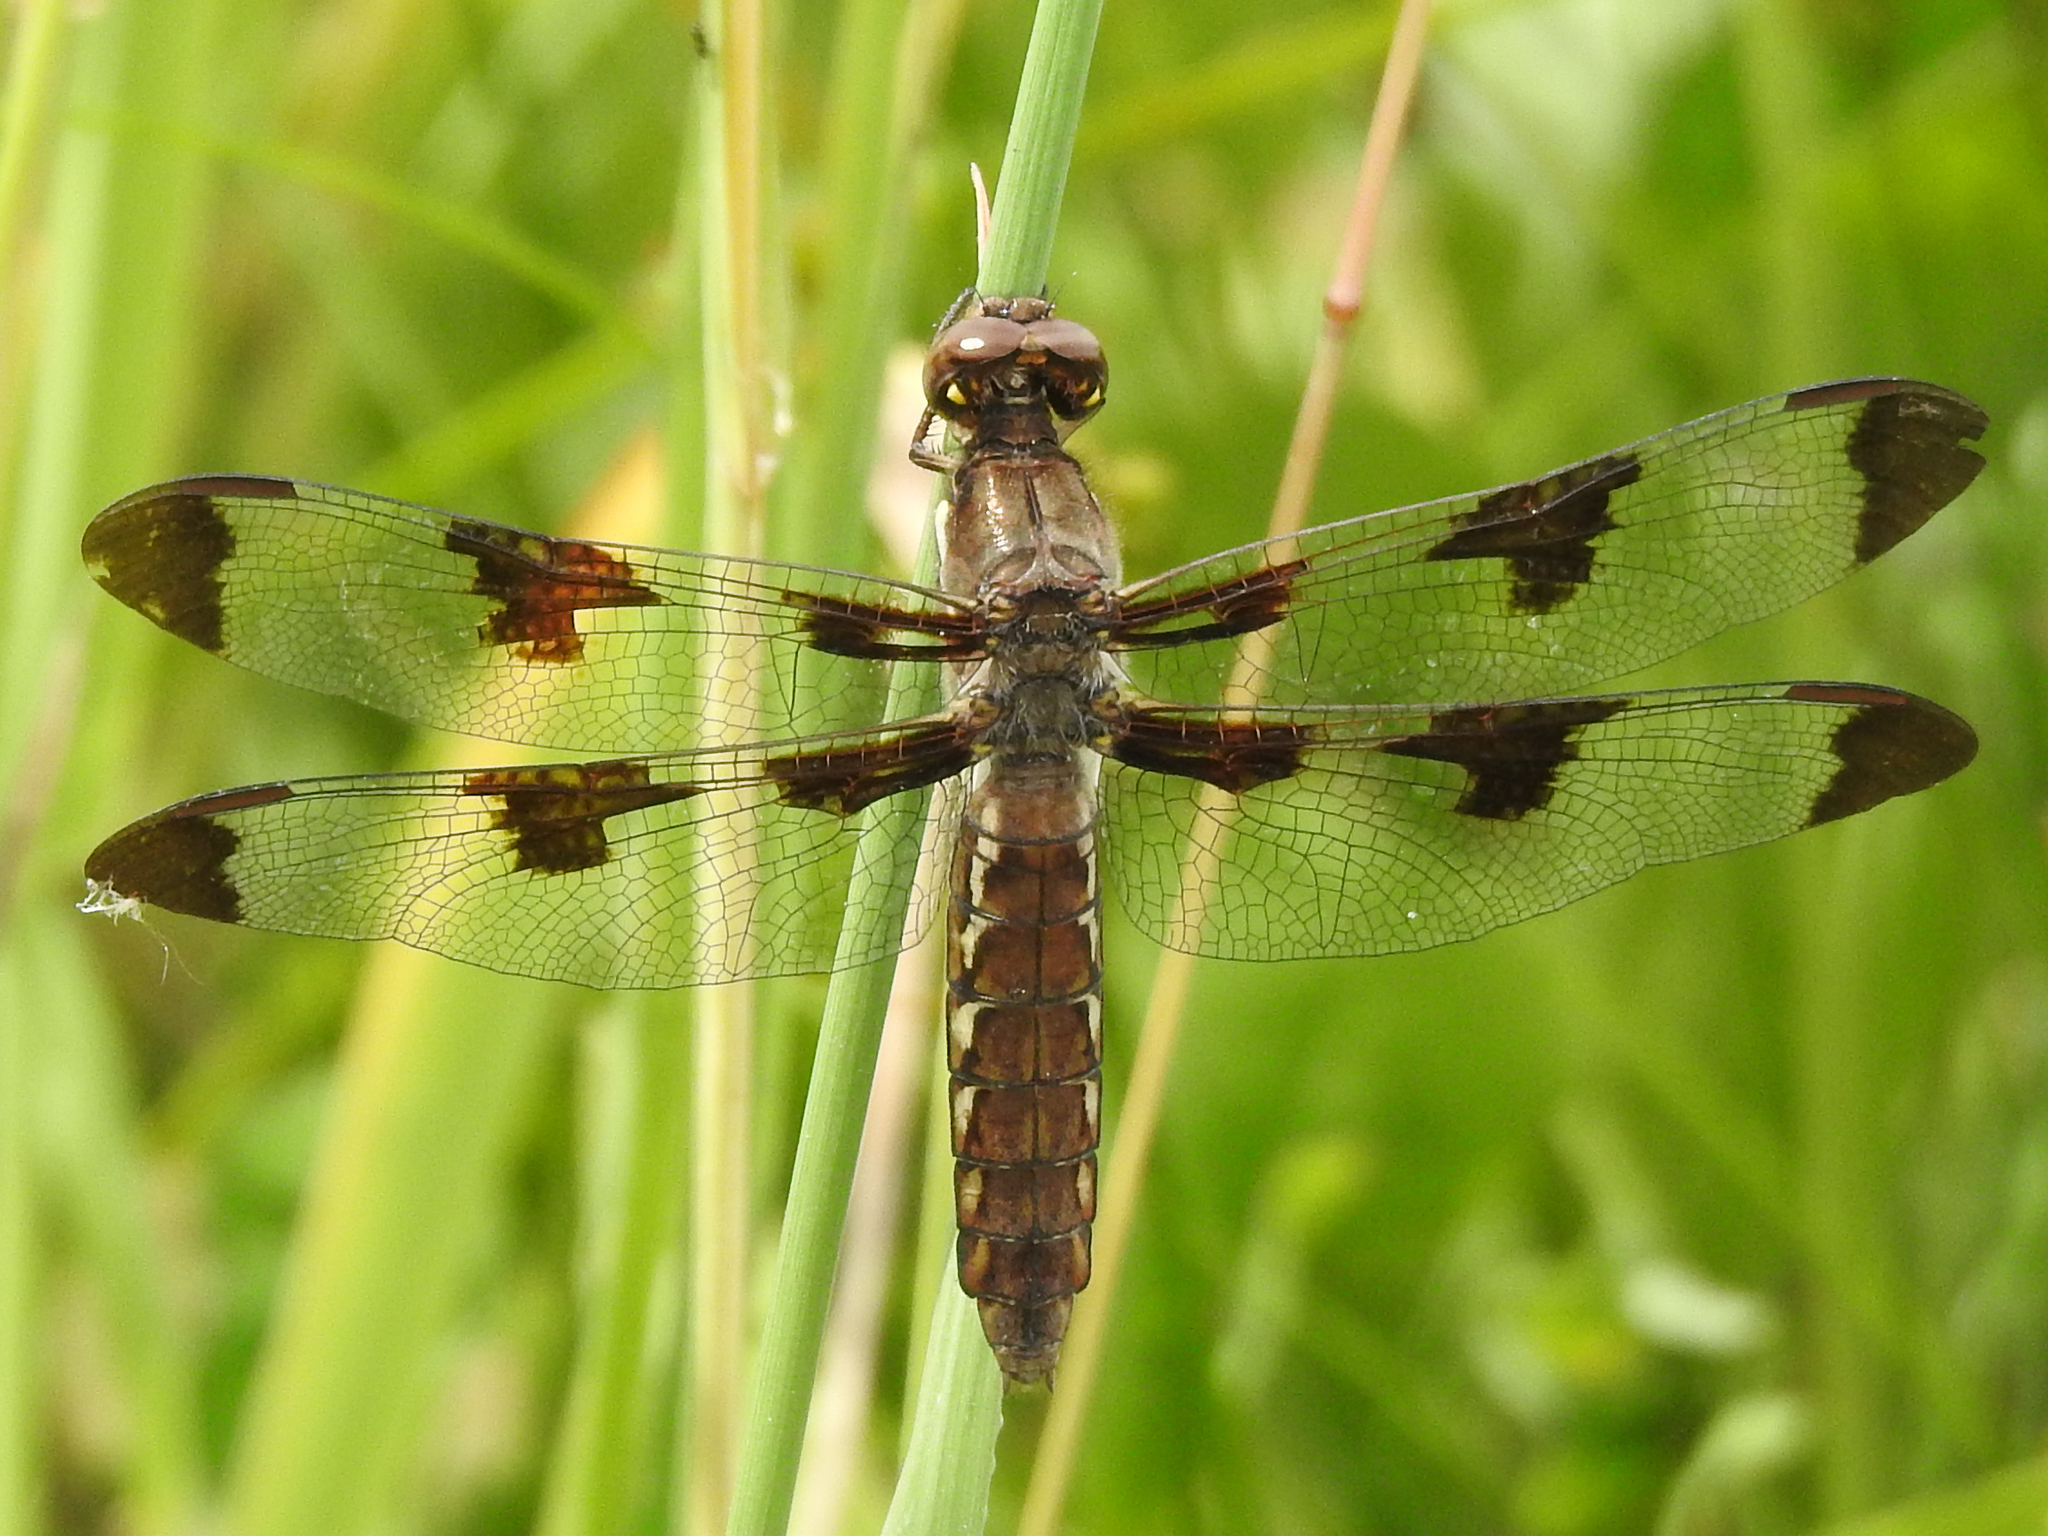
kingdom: Animalia
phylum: Arthropoda
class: Insecta
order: Odonata
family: Libellulidae
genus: Plathemis
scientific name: Plathemis lydia
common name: Common whitetail
